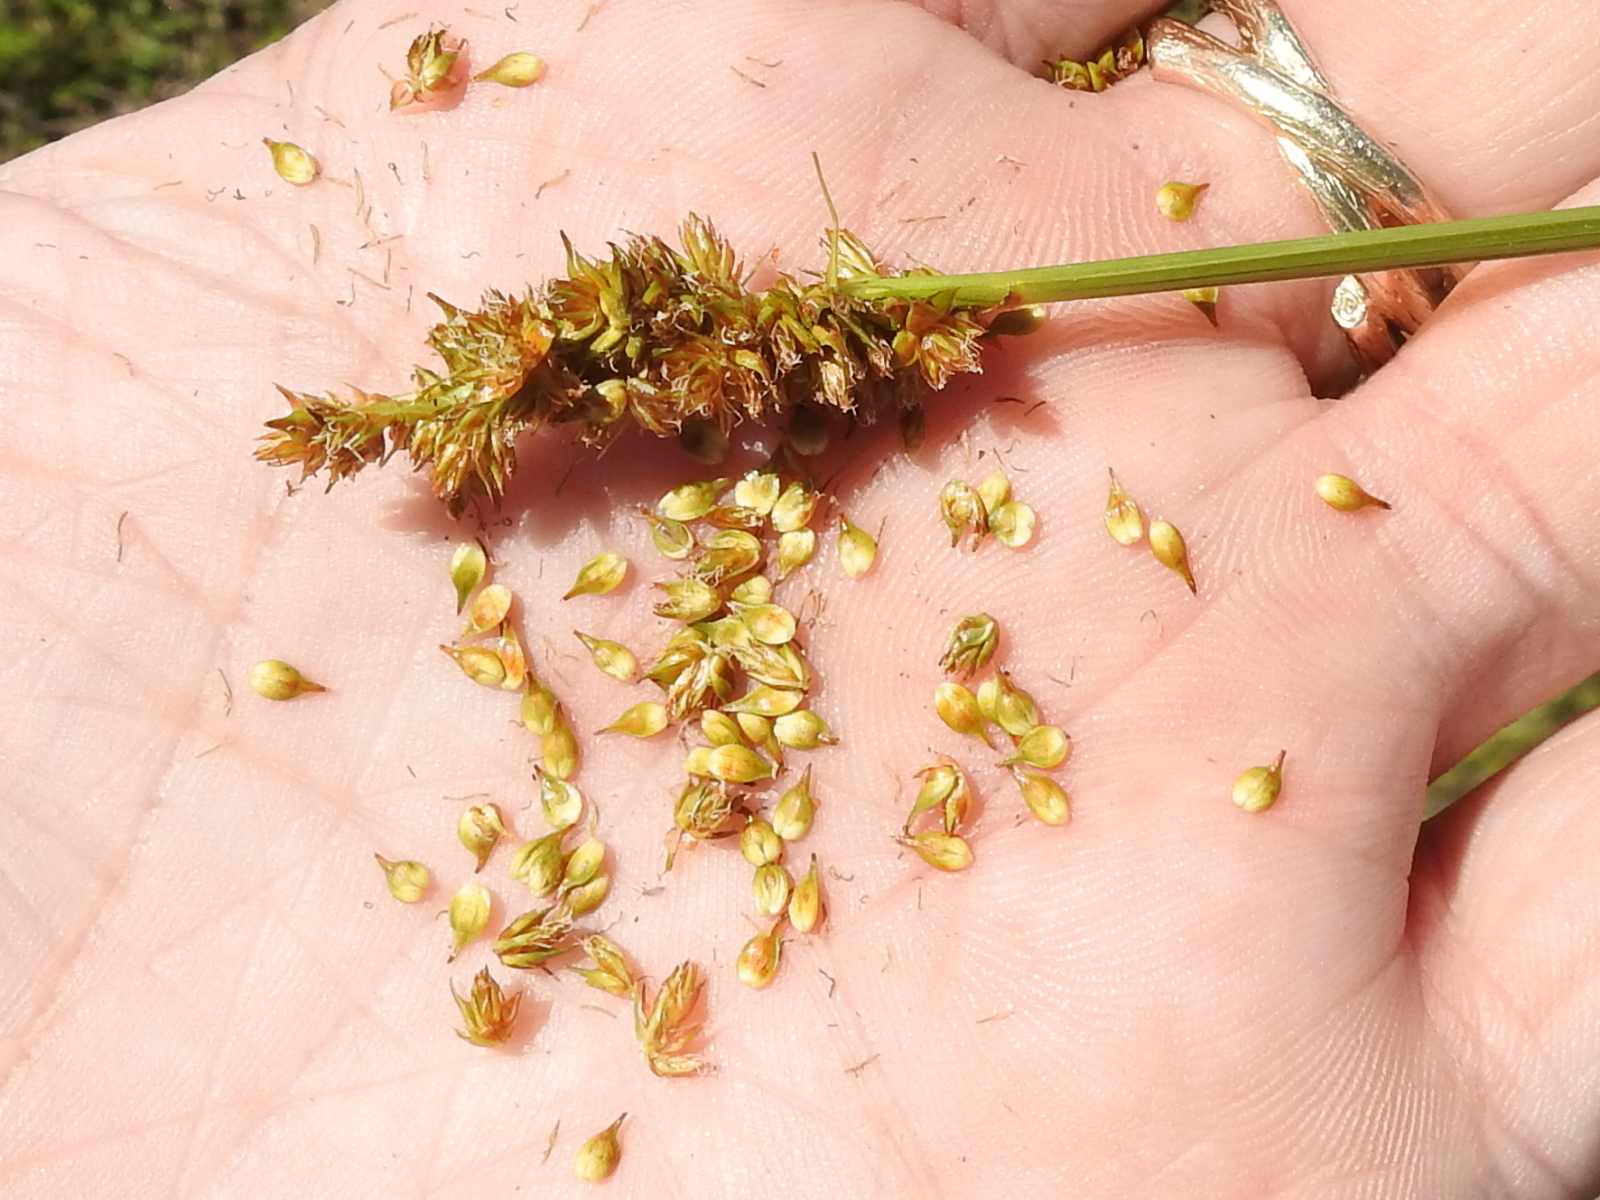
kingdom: Plantae
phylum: Tracheophyta
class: Liliopsida
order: Poales
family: Cyperaceae
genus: Carex
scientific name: Carex densa
